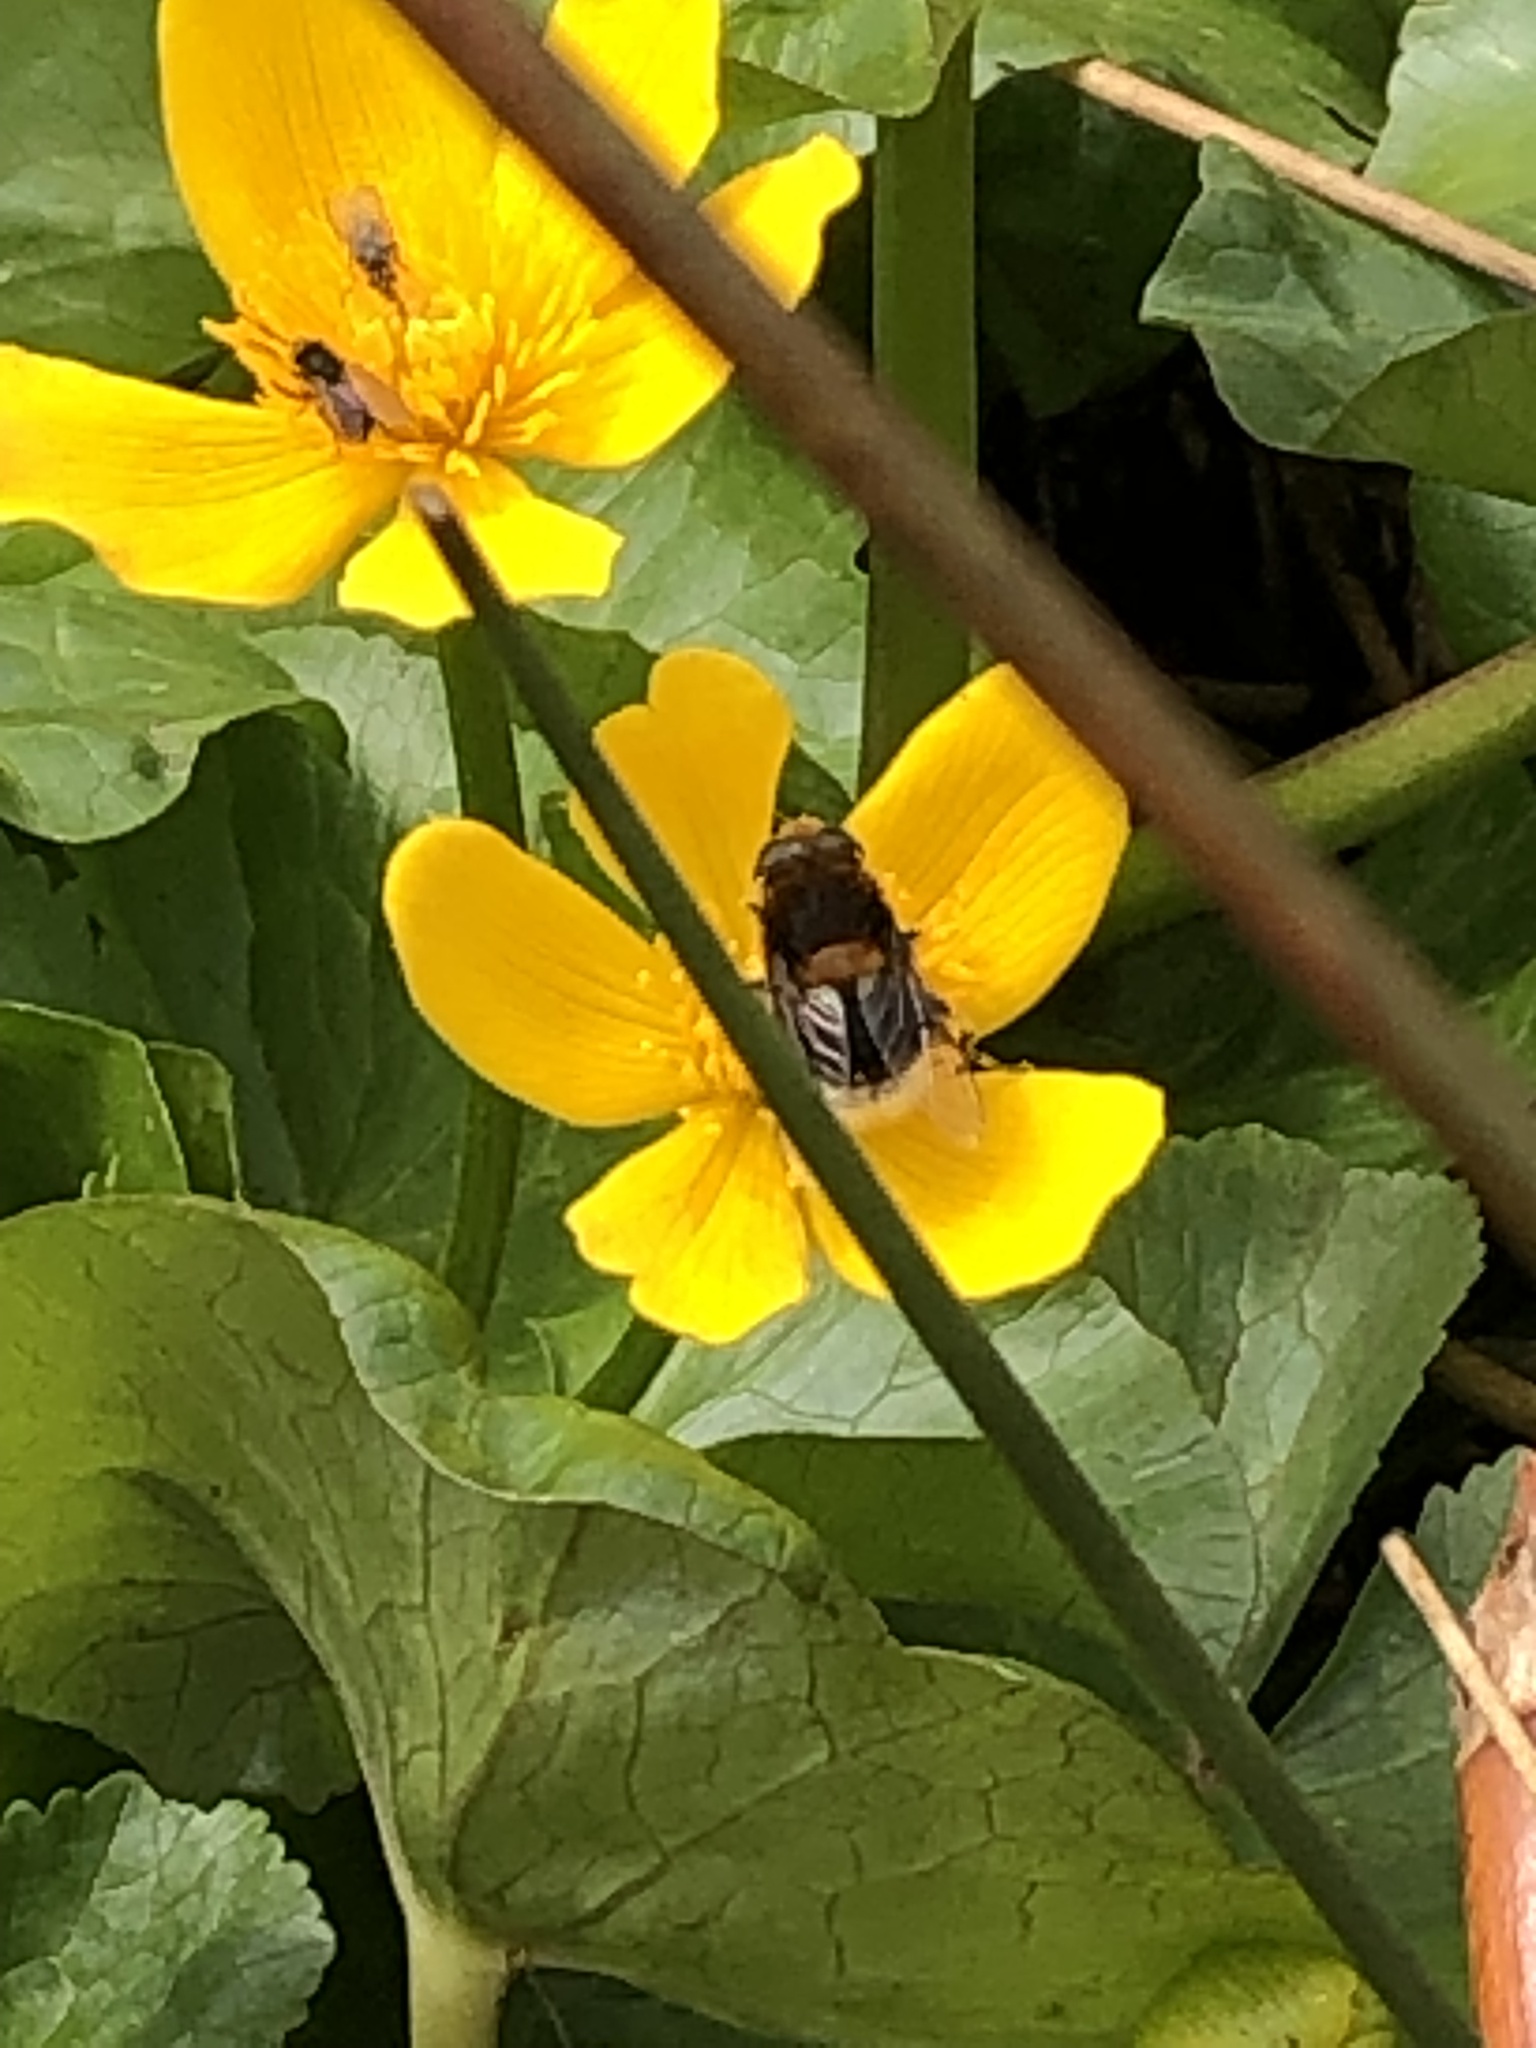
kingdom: Animalia
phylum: Arthropoda
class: Insecta
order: Diptera
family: Syrphidae
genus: Eristalis
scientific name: Eristalis intricaria
